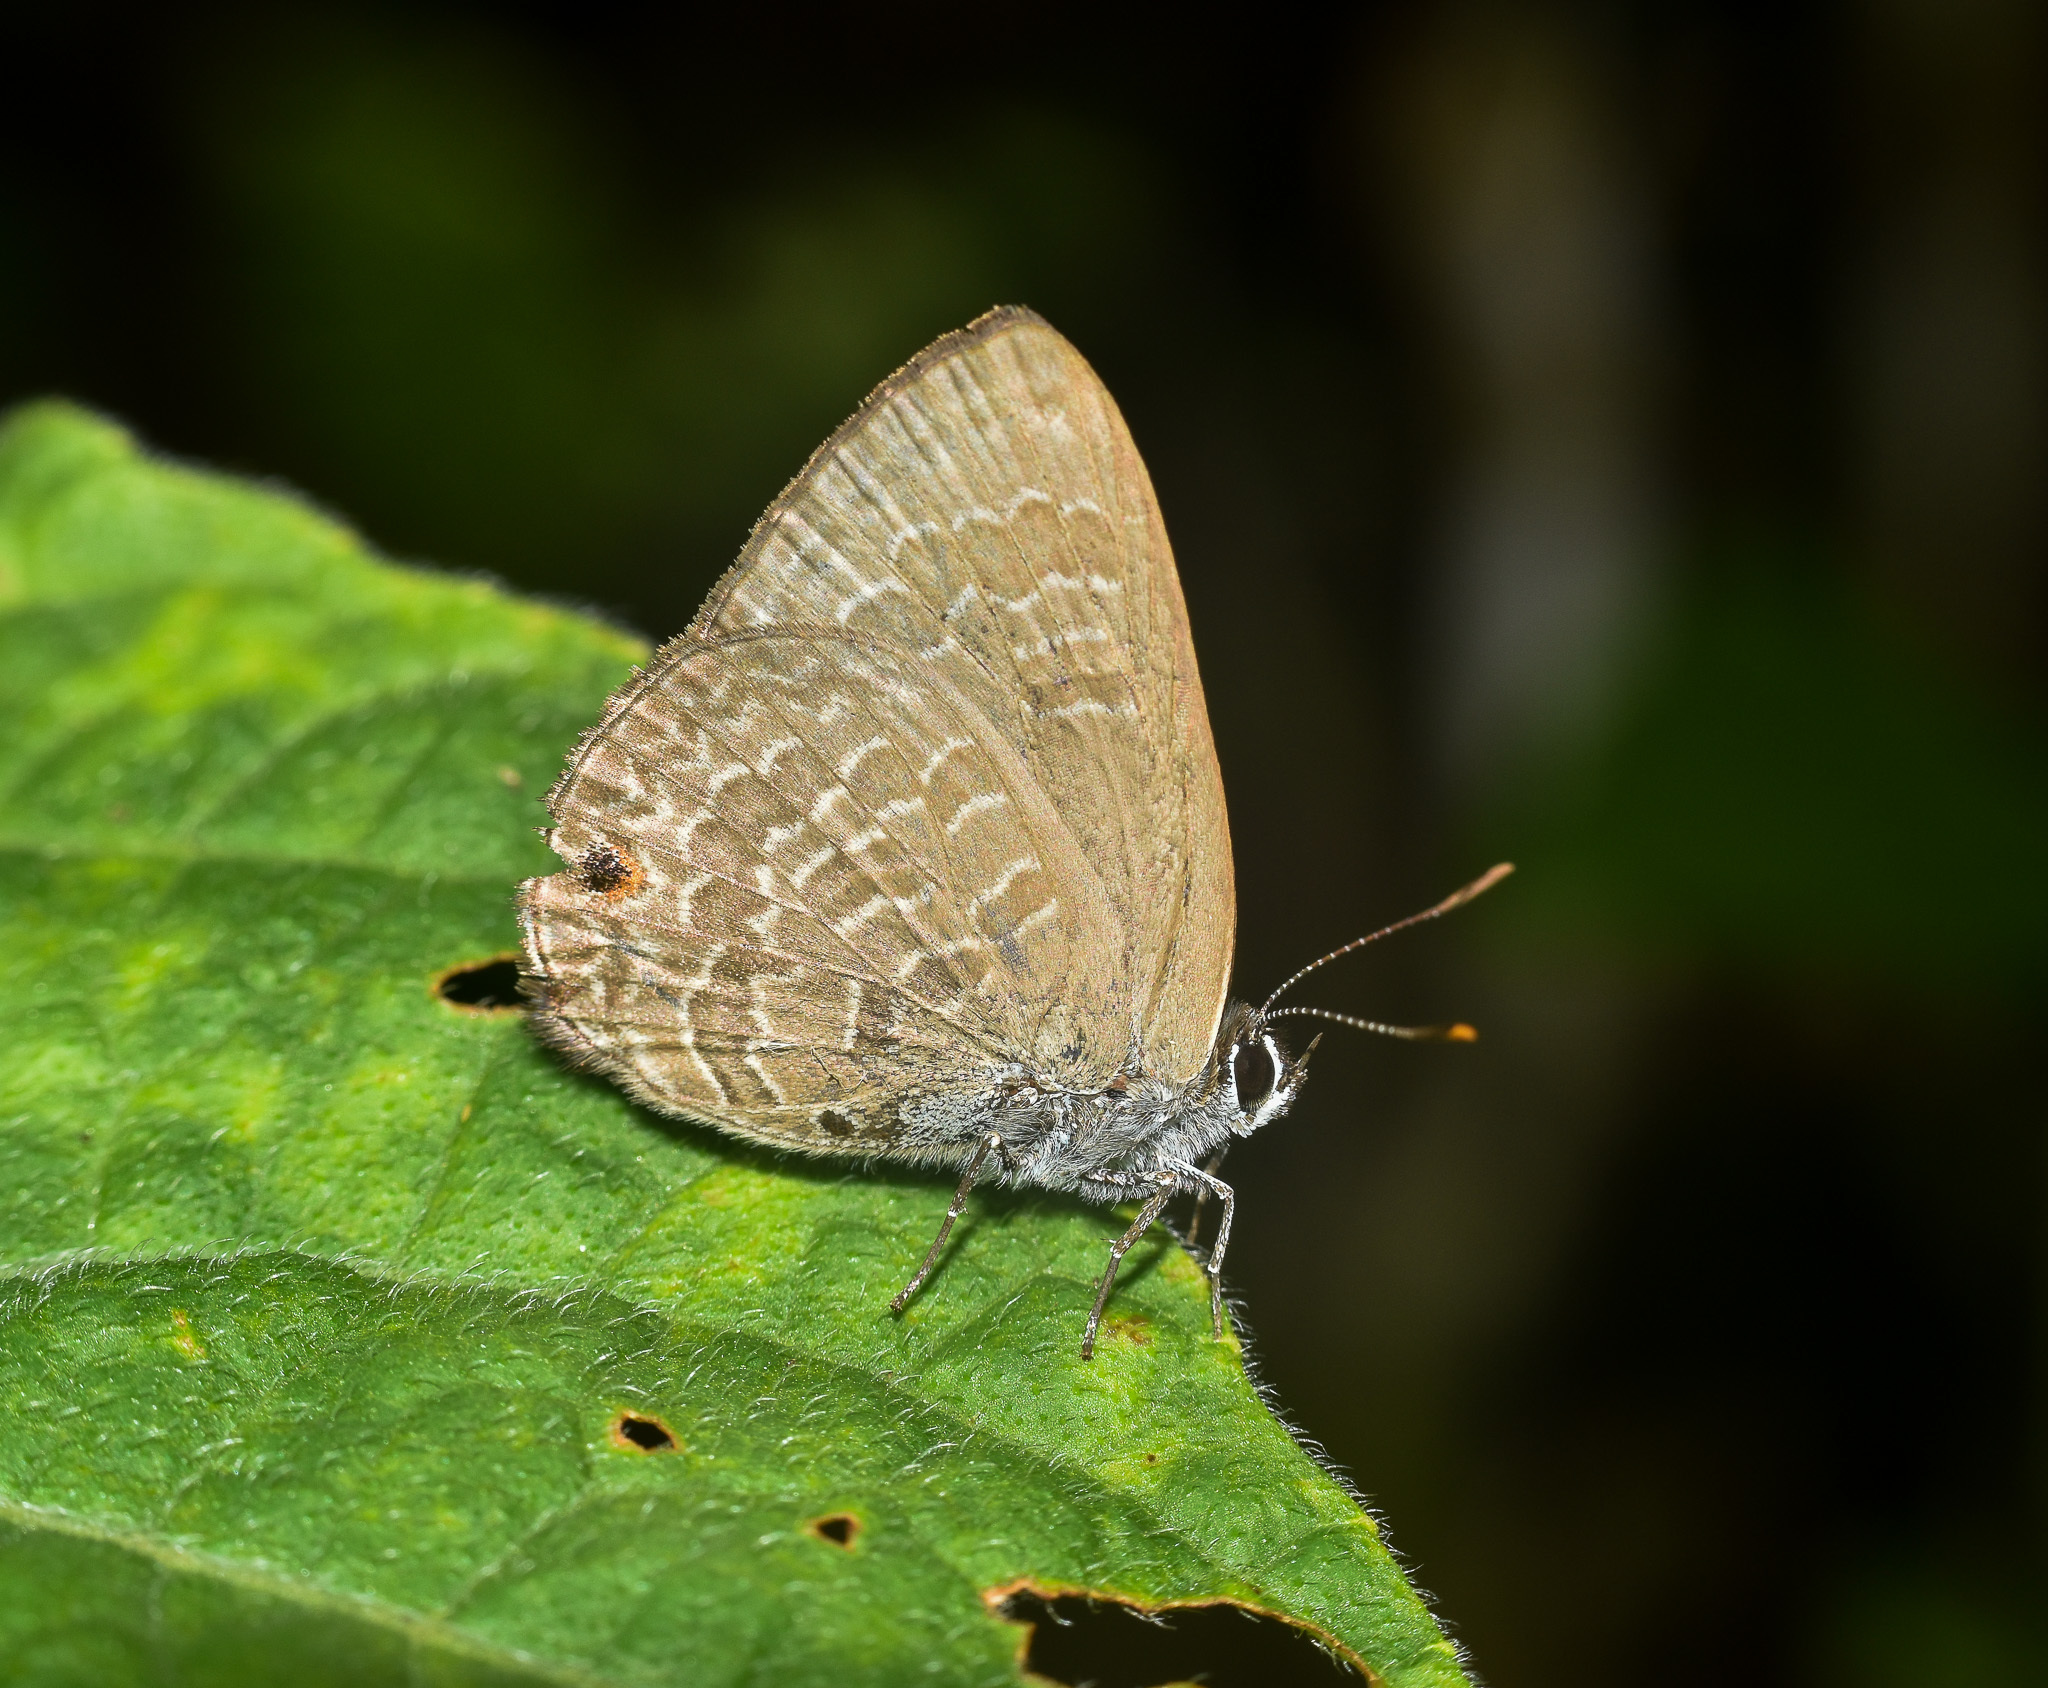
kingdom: Animalia
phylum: Arthropoda
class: Insecta
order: Lepidoptera
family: Lycaenidae
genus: Anthene
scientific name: Anthene emolus
